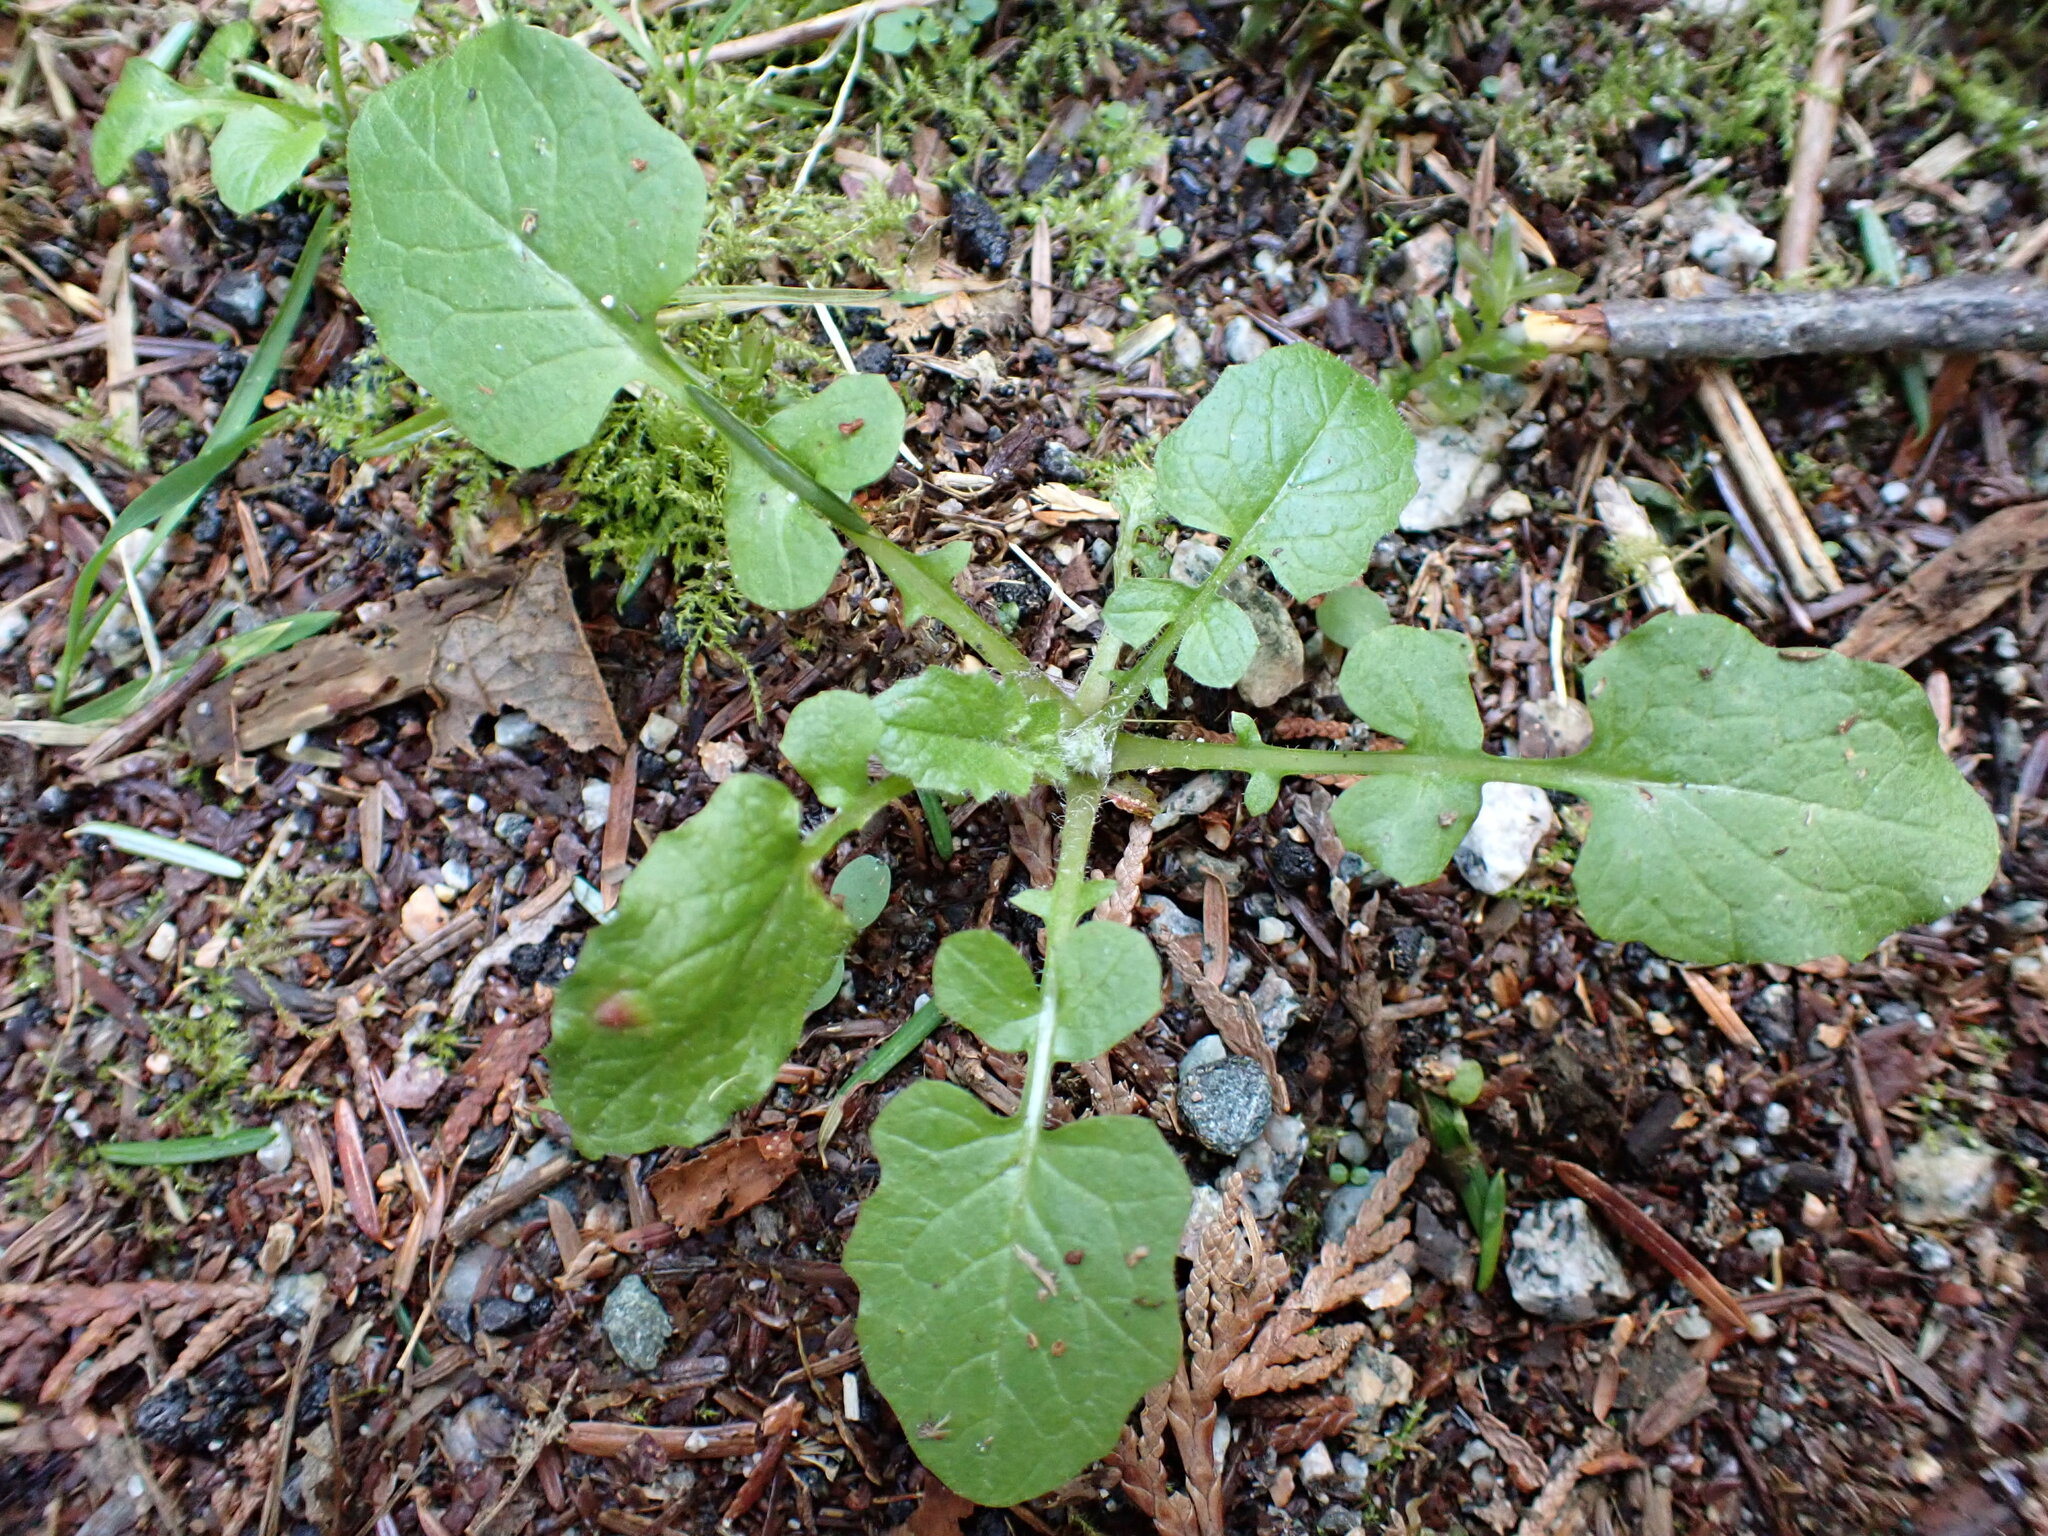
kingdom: Plantae
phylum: Tracheophyta
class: Magnoliopsida
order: Asterales
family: Asteraceae
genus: Lapsana
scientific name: Lapsana communis
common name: Nipplewort
